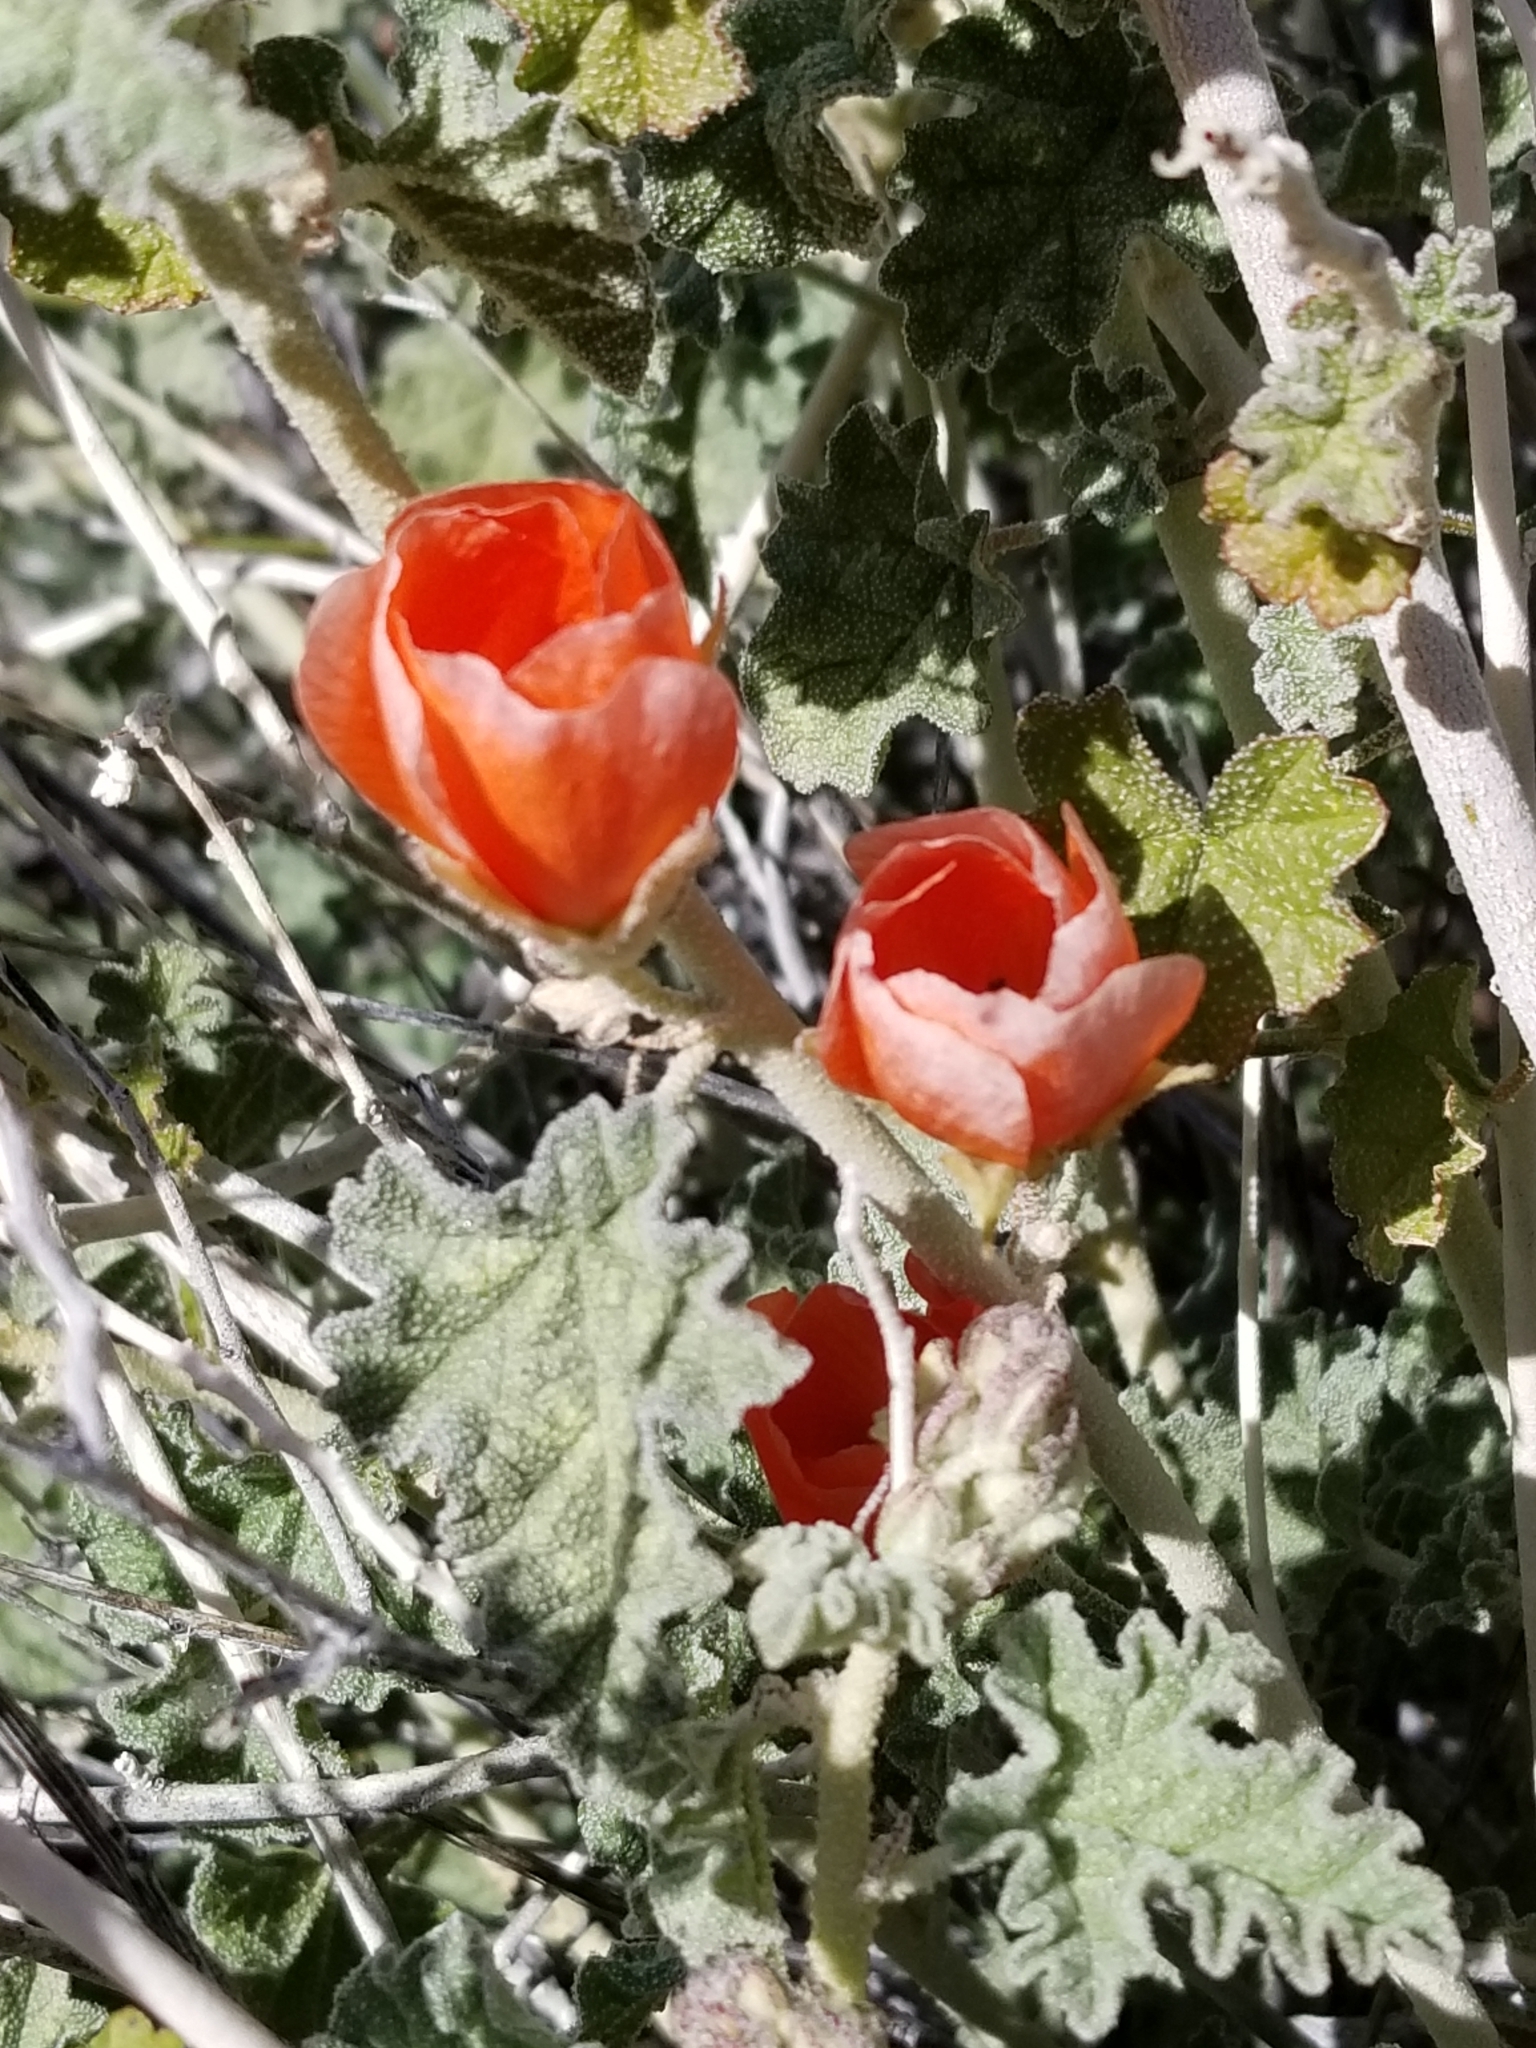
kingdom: Plantae
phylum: Tracheophyta
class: Magnoliopsida
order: Malvales
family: Malvaceae
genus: Sphaeralcea
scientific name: Sphaeralcea ambigua
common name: Apricot globe-mallow
